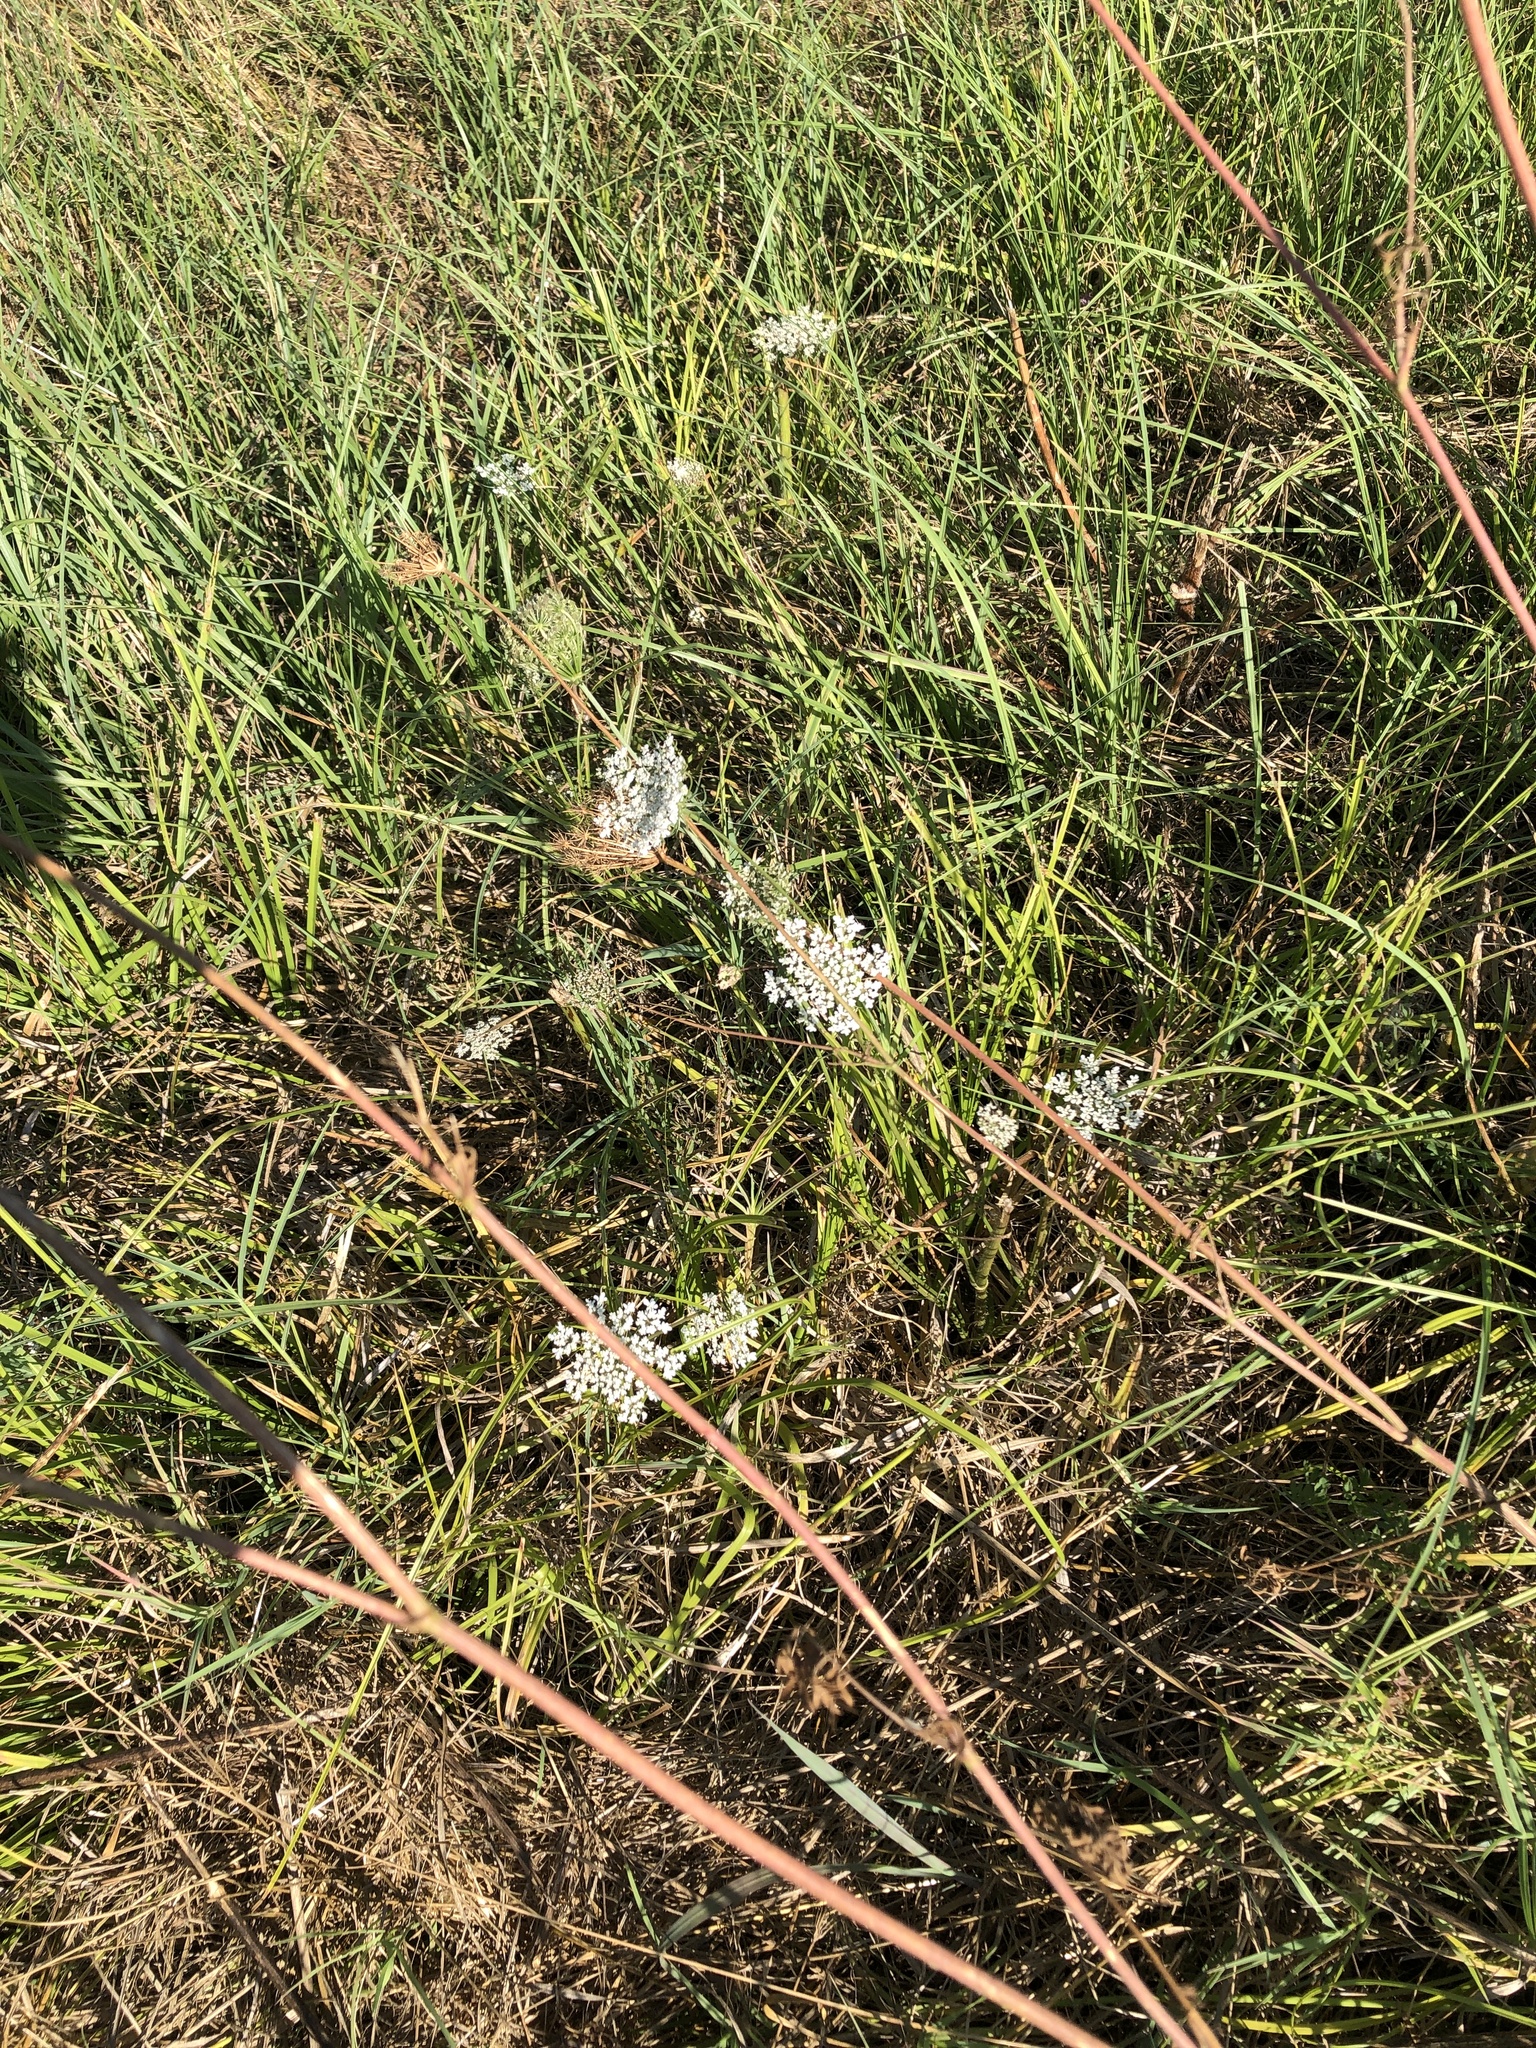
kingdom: Plantae
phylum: Tracheophyta
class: Magnoliopsida
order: Apiales
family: Apiaceae
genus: Daucus
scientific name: Daucus carota
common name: Wild carrot
